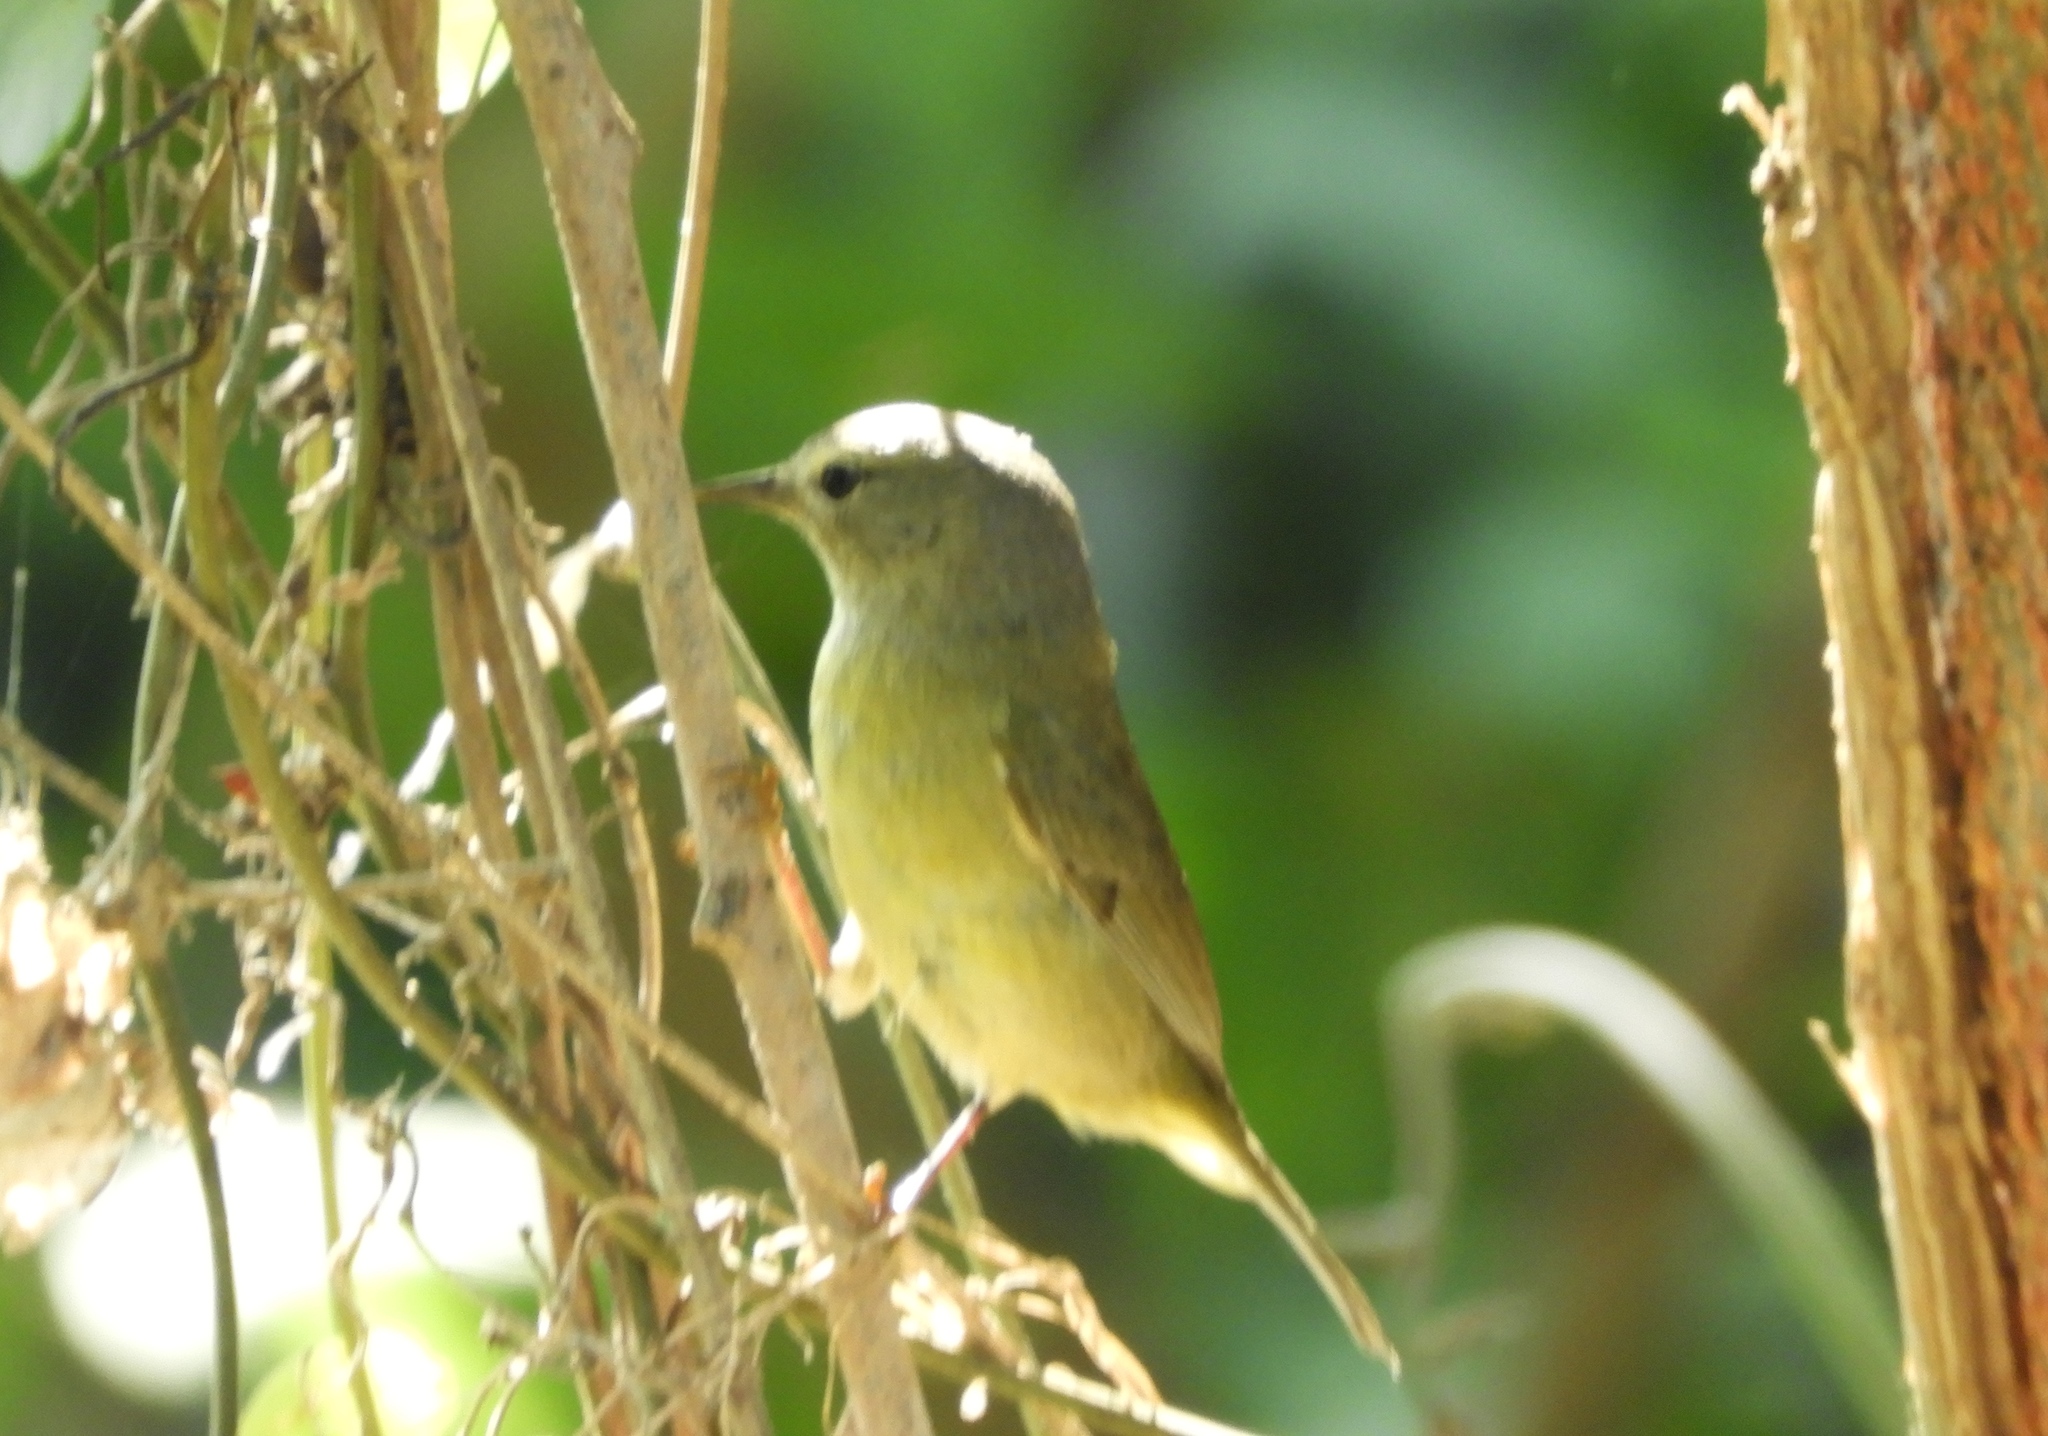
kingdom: Animalia
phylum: Chordata
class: Aves
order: Passeriformes
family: Parulidae
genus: Leiothlypis
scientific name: Leiothlypis celata
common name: Orange-crowned warbler
